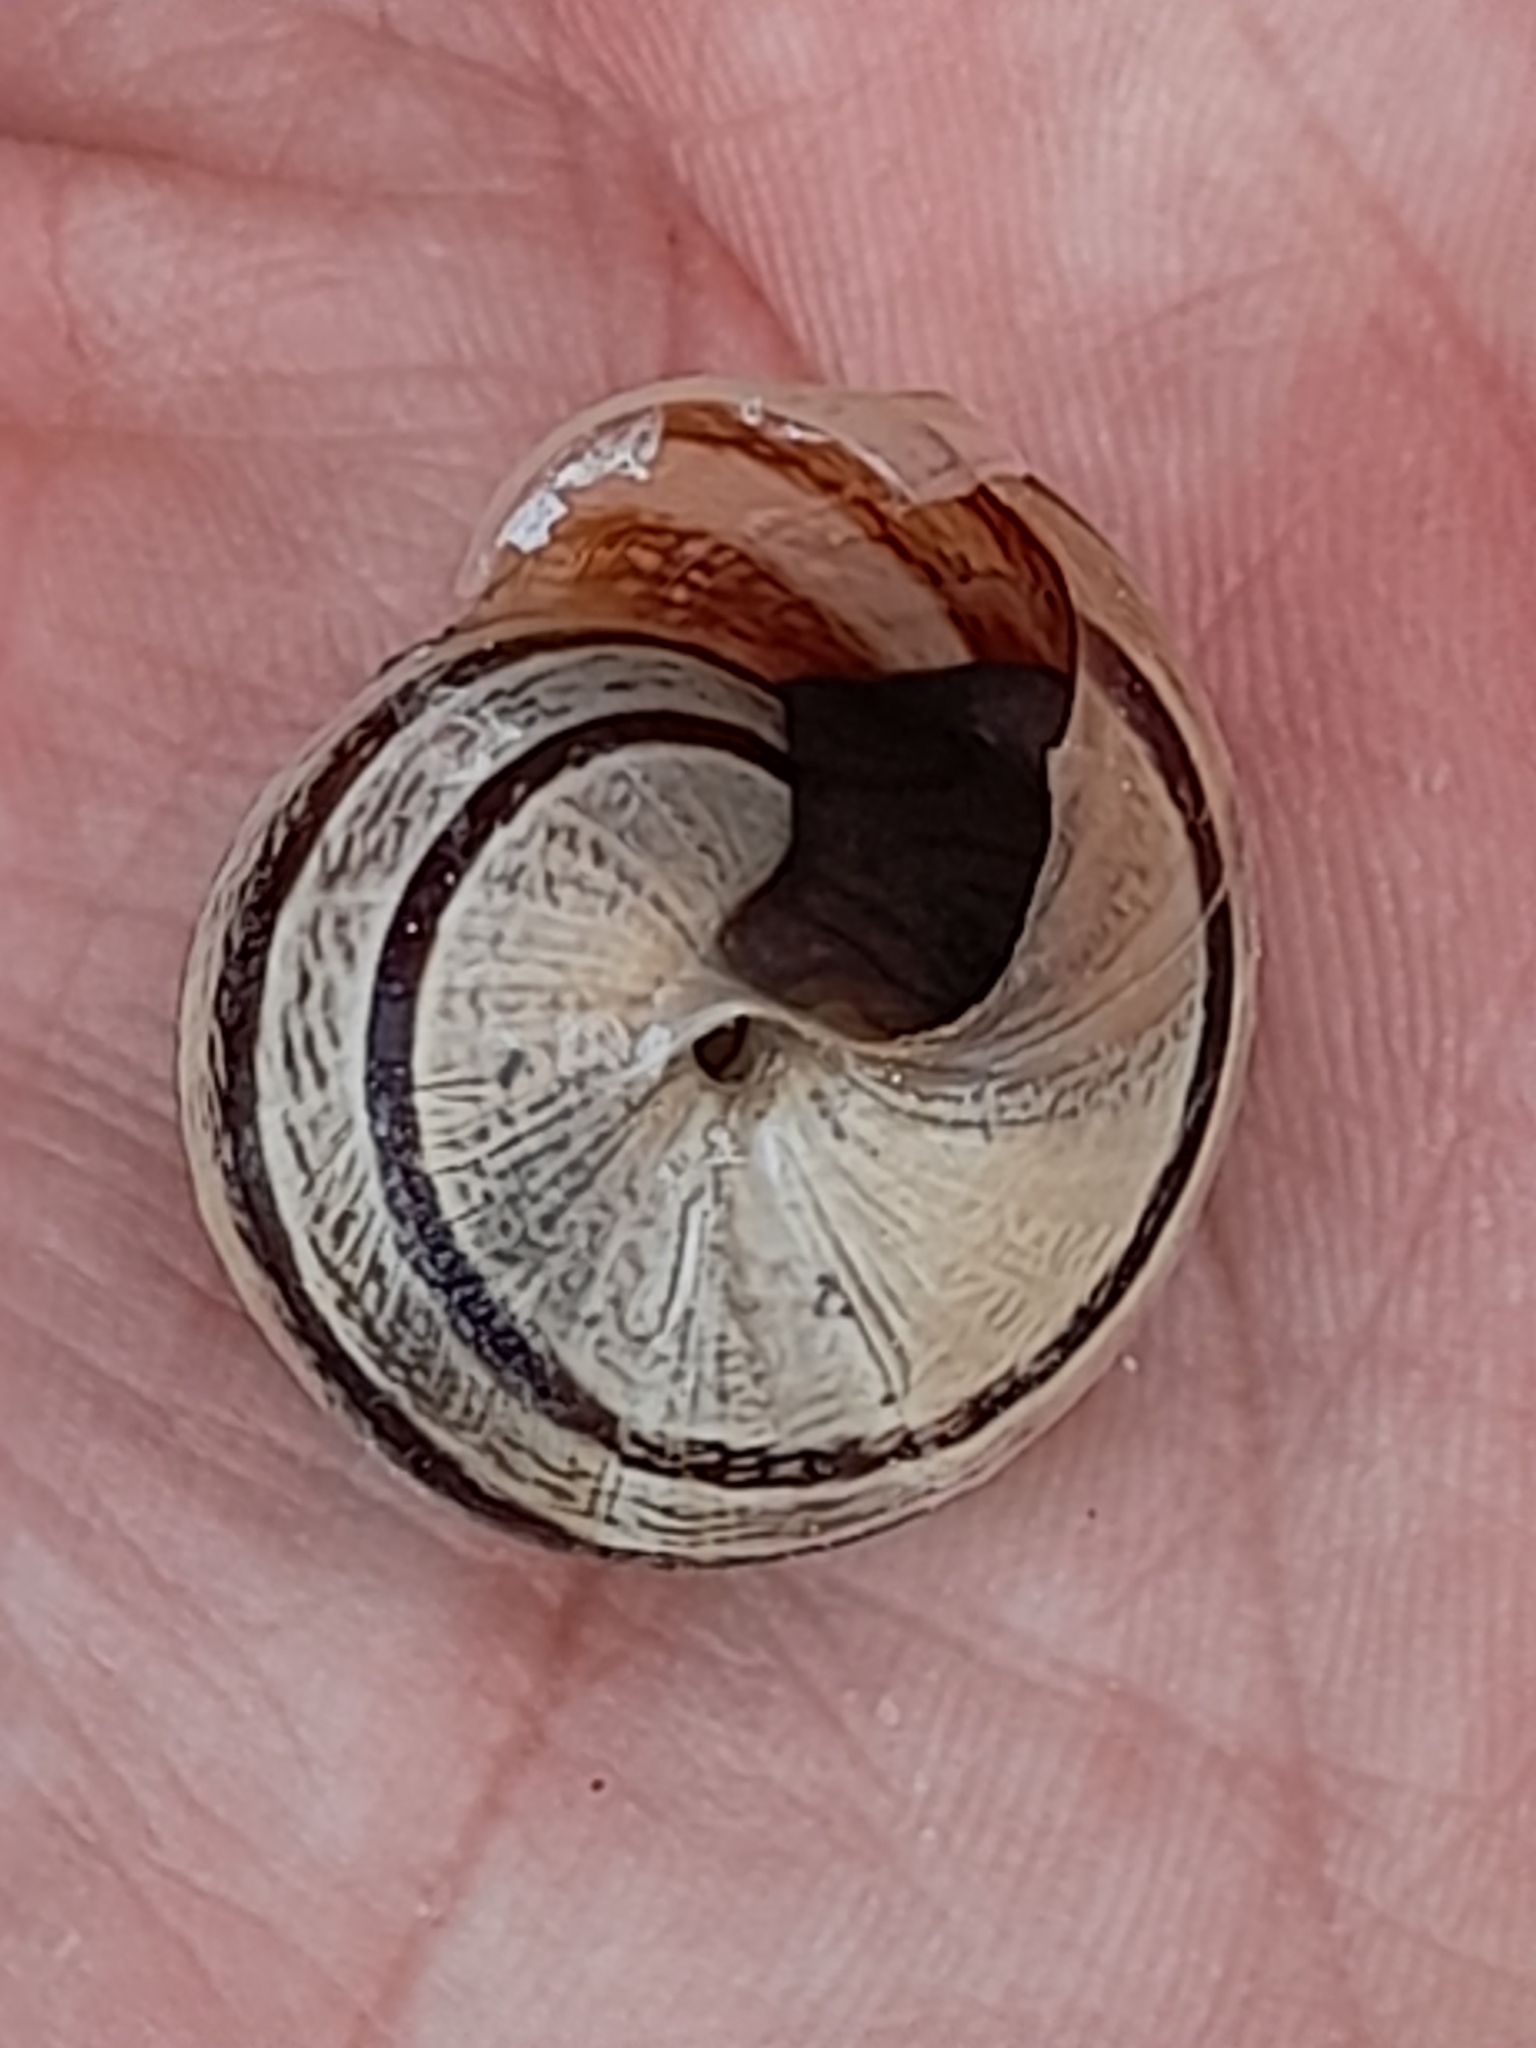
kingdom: Animalia
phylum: Mollusca
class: Gastropoda
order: Stylommatophora
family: Helicidae
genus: Eobania
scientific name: Eobania vermiculata
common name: Chocolateband snail
